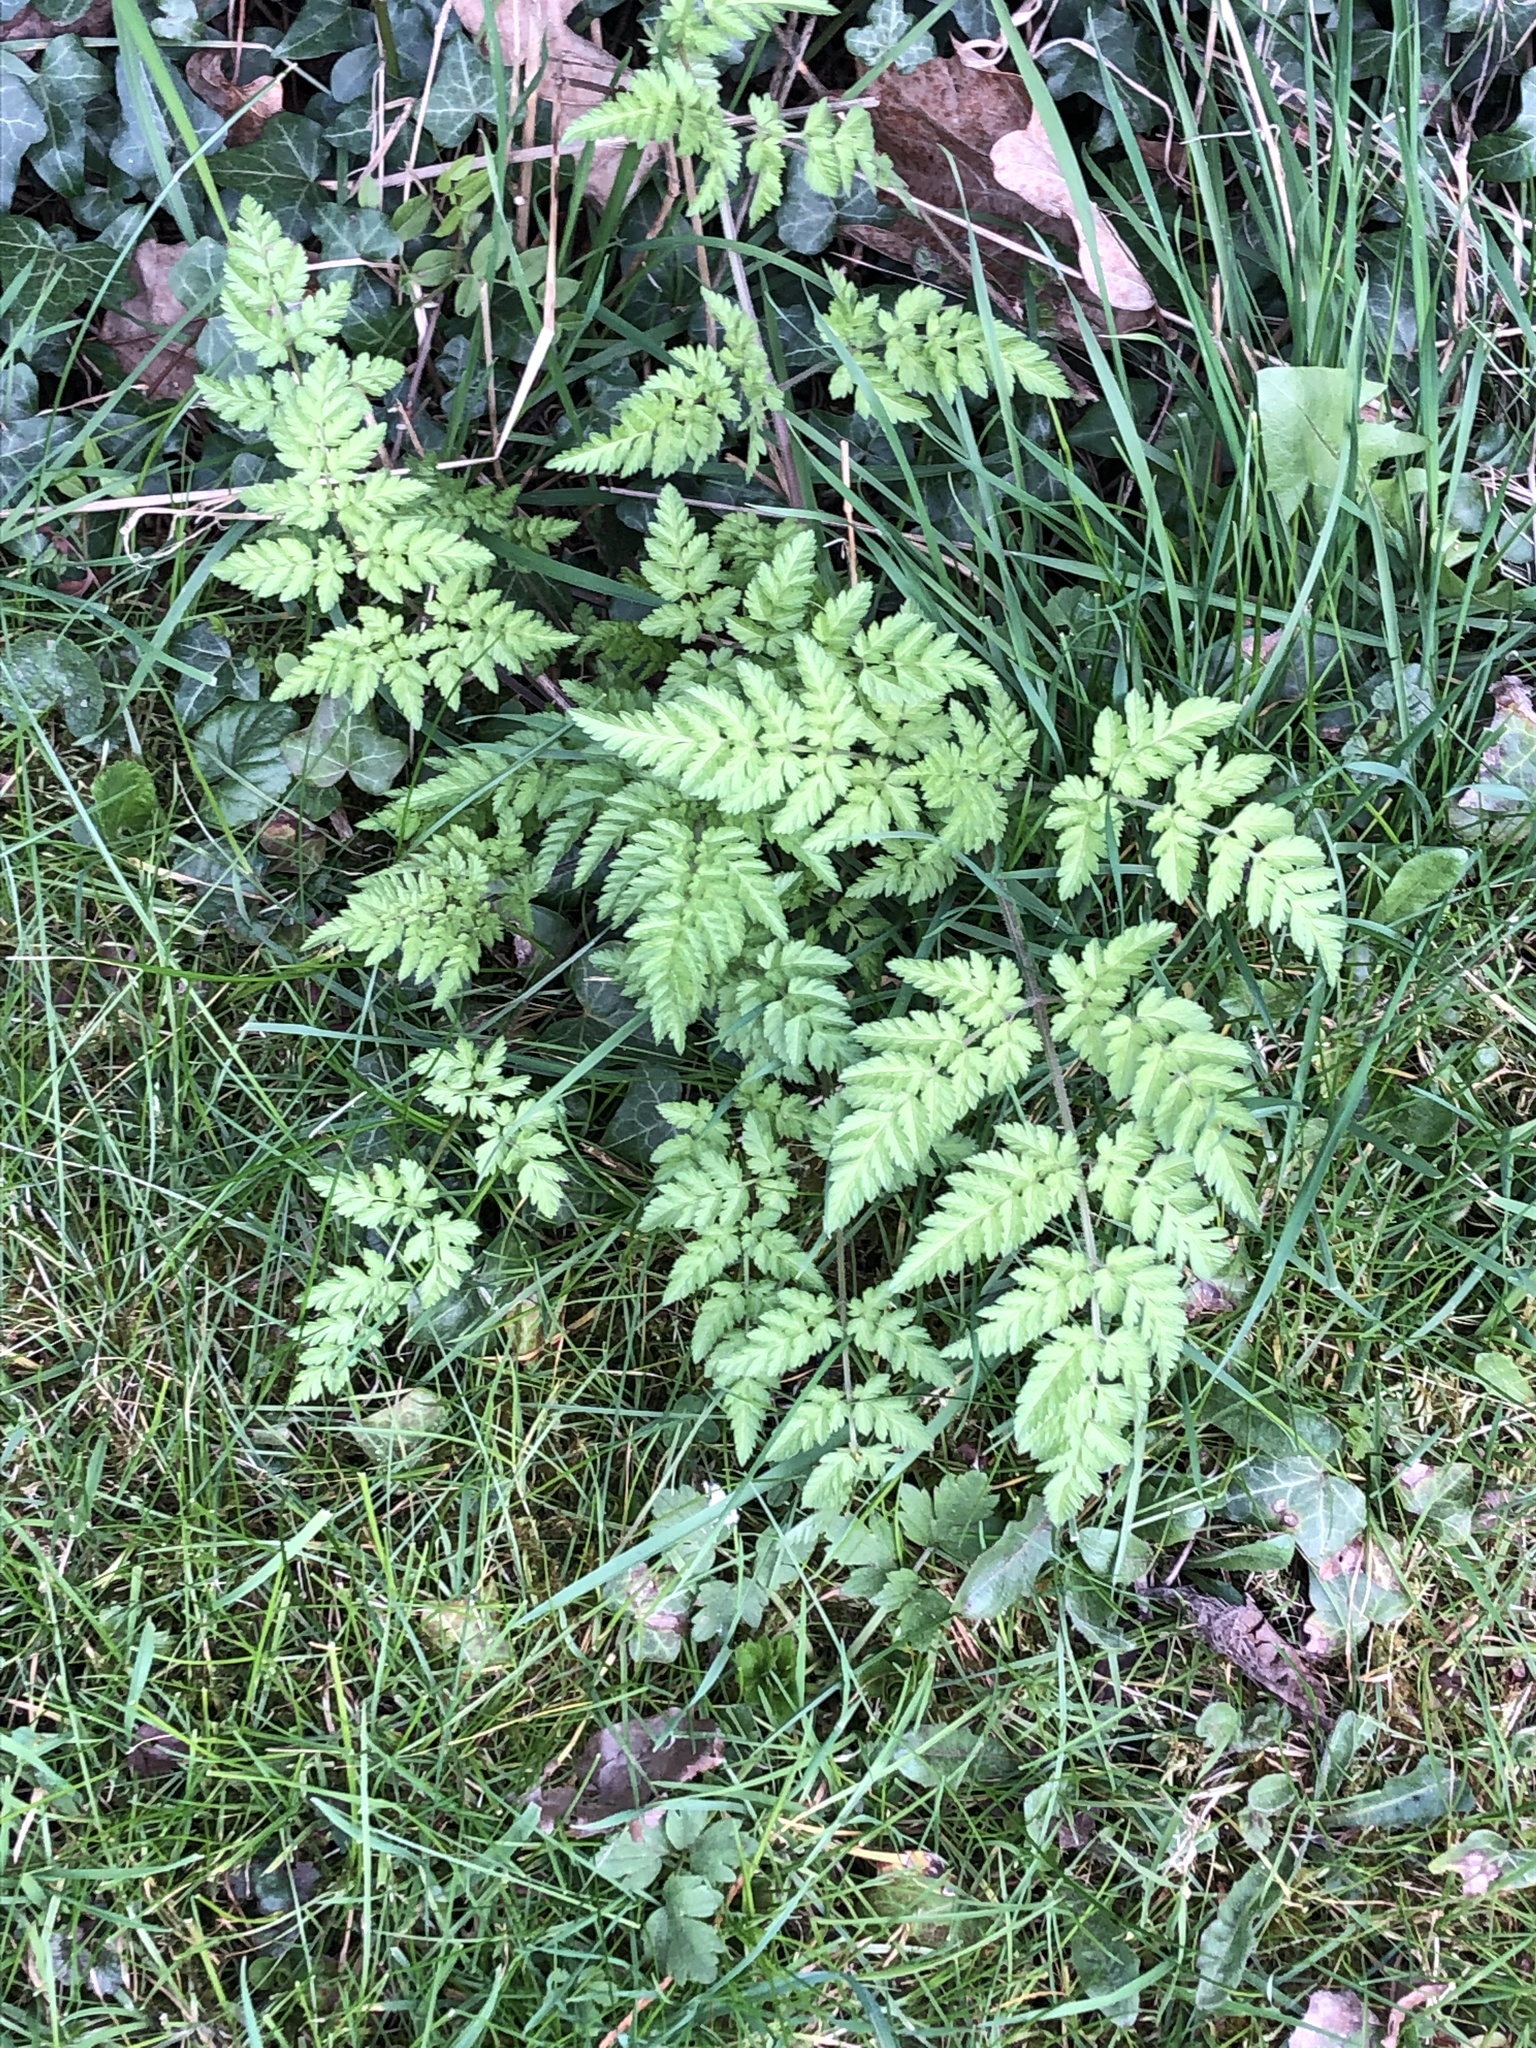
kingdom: Plantae
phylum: Tracheophyta
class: Magnoliopsida
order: Apiales
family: Apiaceae
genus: Anthriscus
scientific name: Anthriscus sylvestris
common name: Cow parsley
